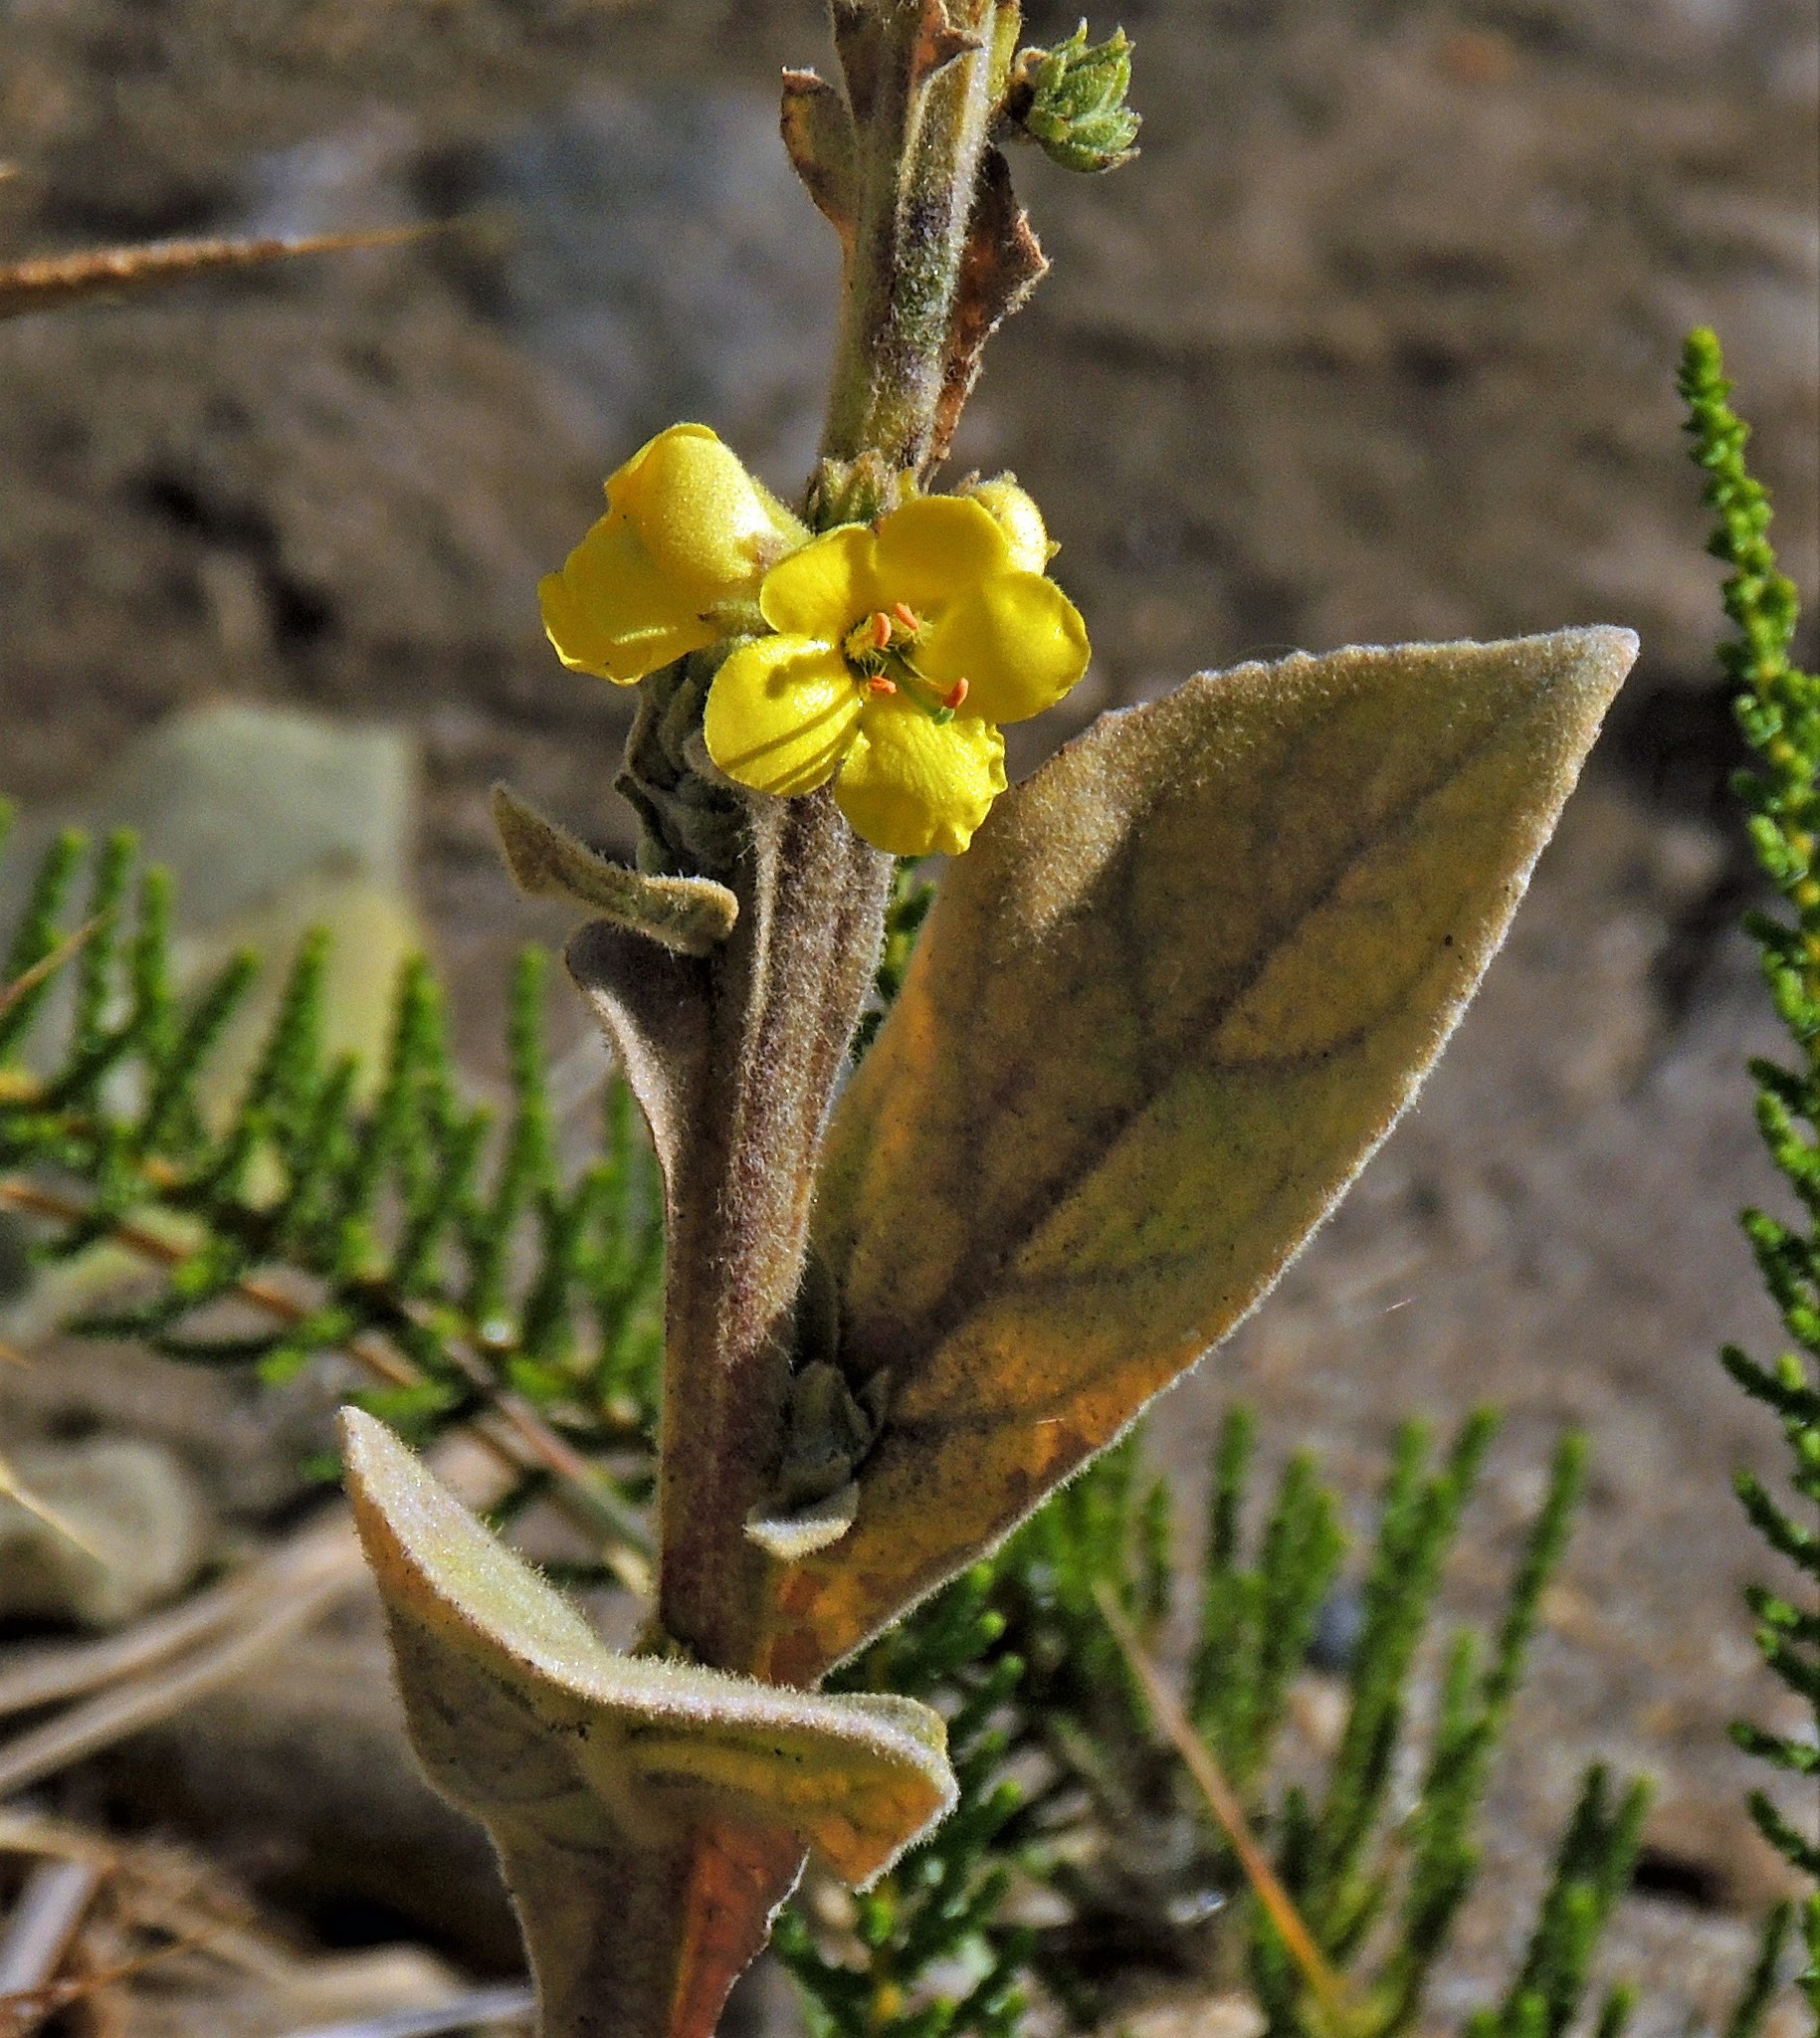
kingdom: Plantae
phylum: Tracheophyta
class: Magnoliopsida
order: Lamiales
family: Scrophulariaceae
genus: Verbascum
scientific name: Verbascum thapsus
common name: Common mullein
